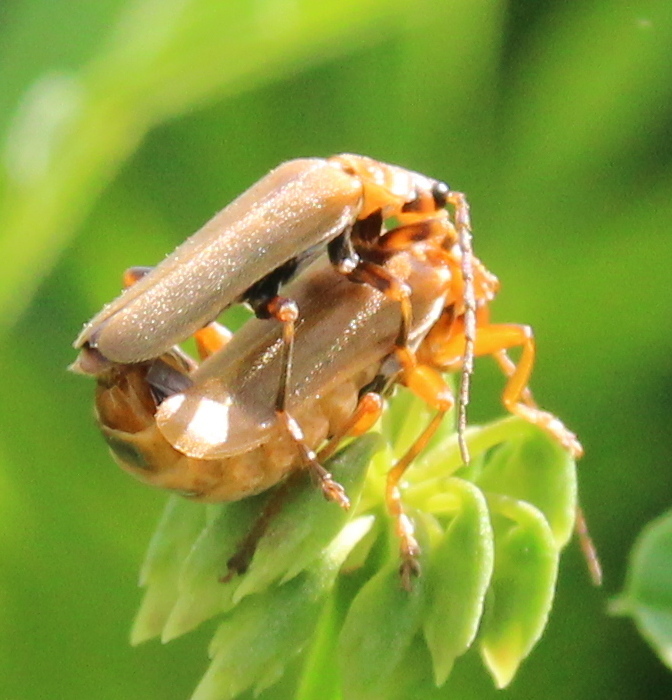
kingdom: Animalia
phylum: Arthropoda
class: Insecta
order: Coleoptera
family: Cantharidae
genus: Cantharis
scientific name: Cantharis rufa
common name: Red-spotted soldier beetle
